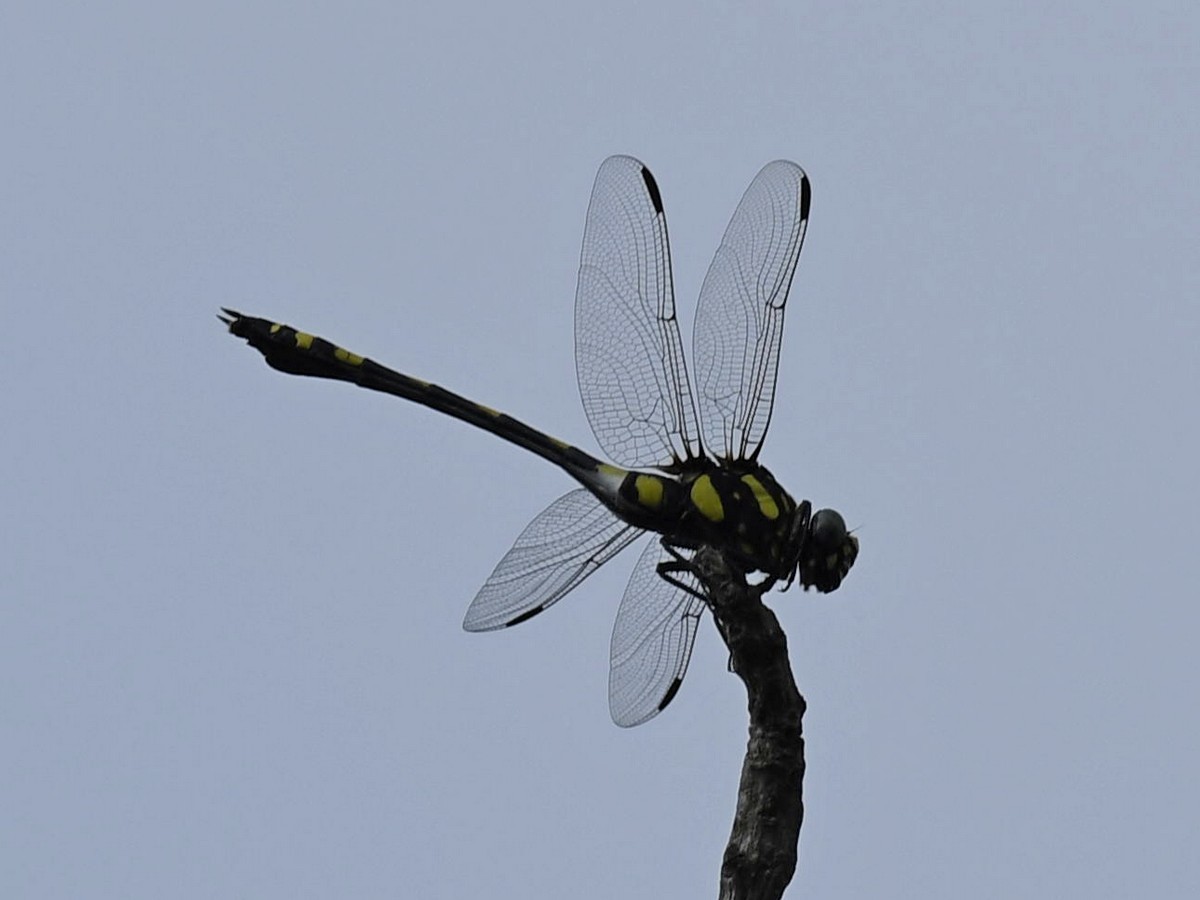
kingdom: Animalia
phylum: Arthropoda
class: Insecta
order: Odonata
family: Gomphidae
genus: Ictinogomphus
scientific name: Ictinogomphus rapax
